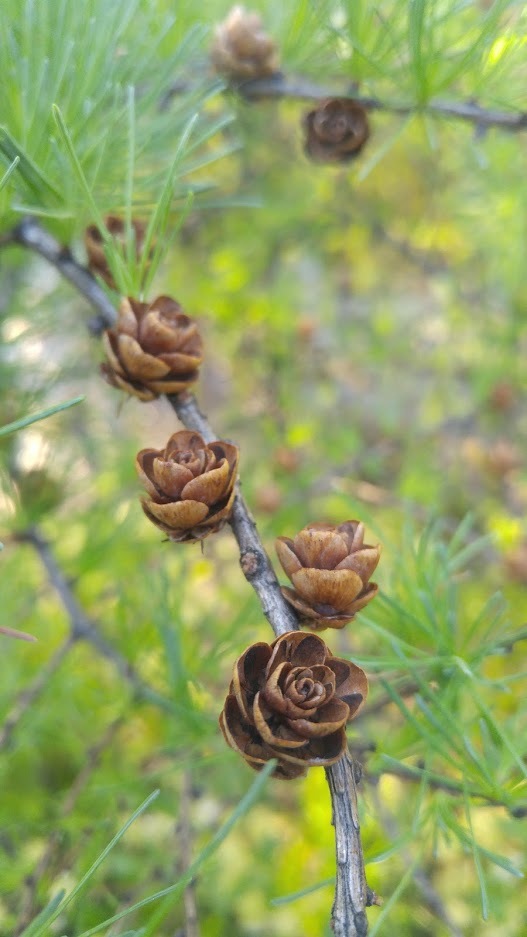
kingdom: Plantae
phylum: Tracheophyta
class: Pinopsida
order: Pinales
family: Pinaceae
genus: Larix
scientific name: Larix laricina
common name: American larch
